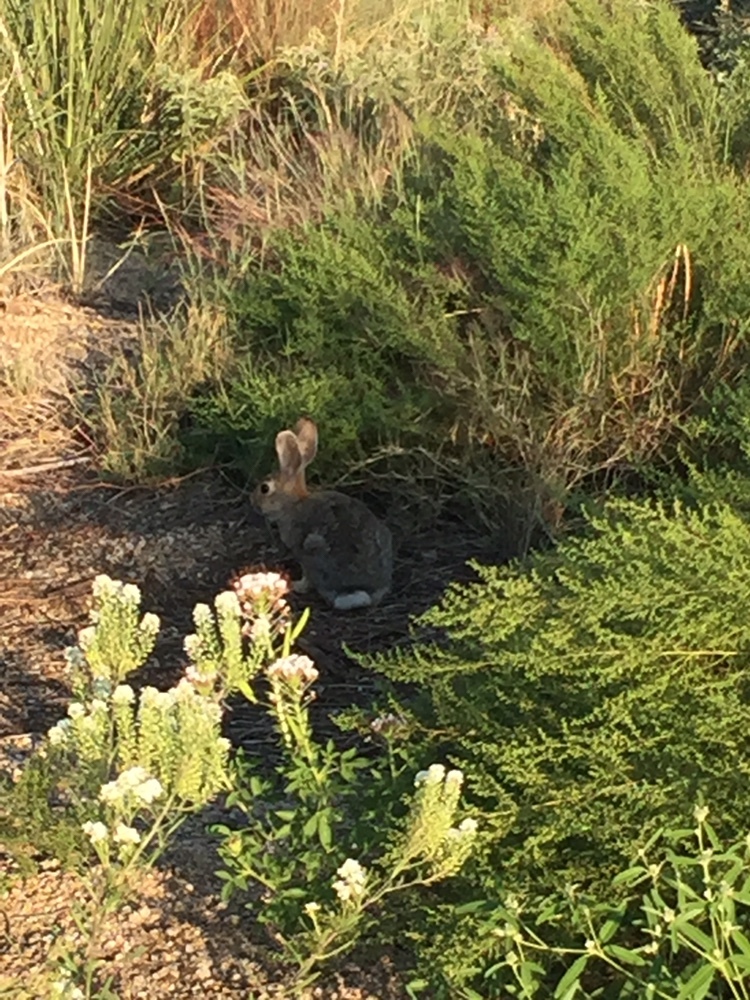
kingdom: Animalia
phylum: Chordata
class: Mammalia
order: Lagomorpha
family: Leporidae
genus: Sylvilagus
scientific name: Sylvilagus audubonii
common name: Desert cottontail
